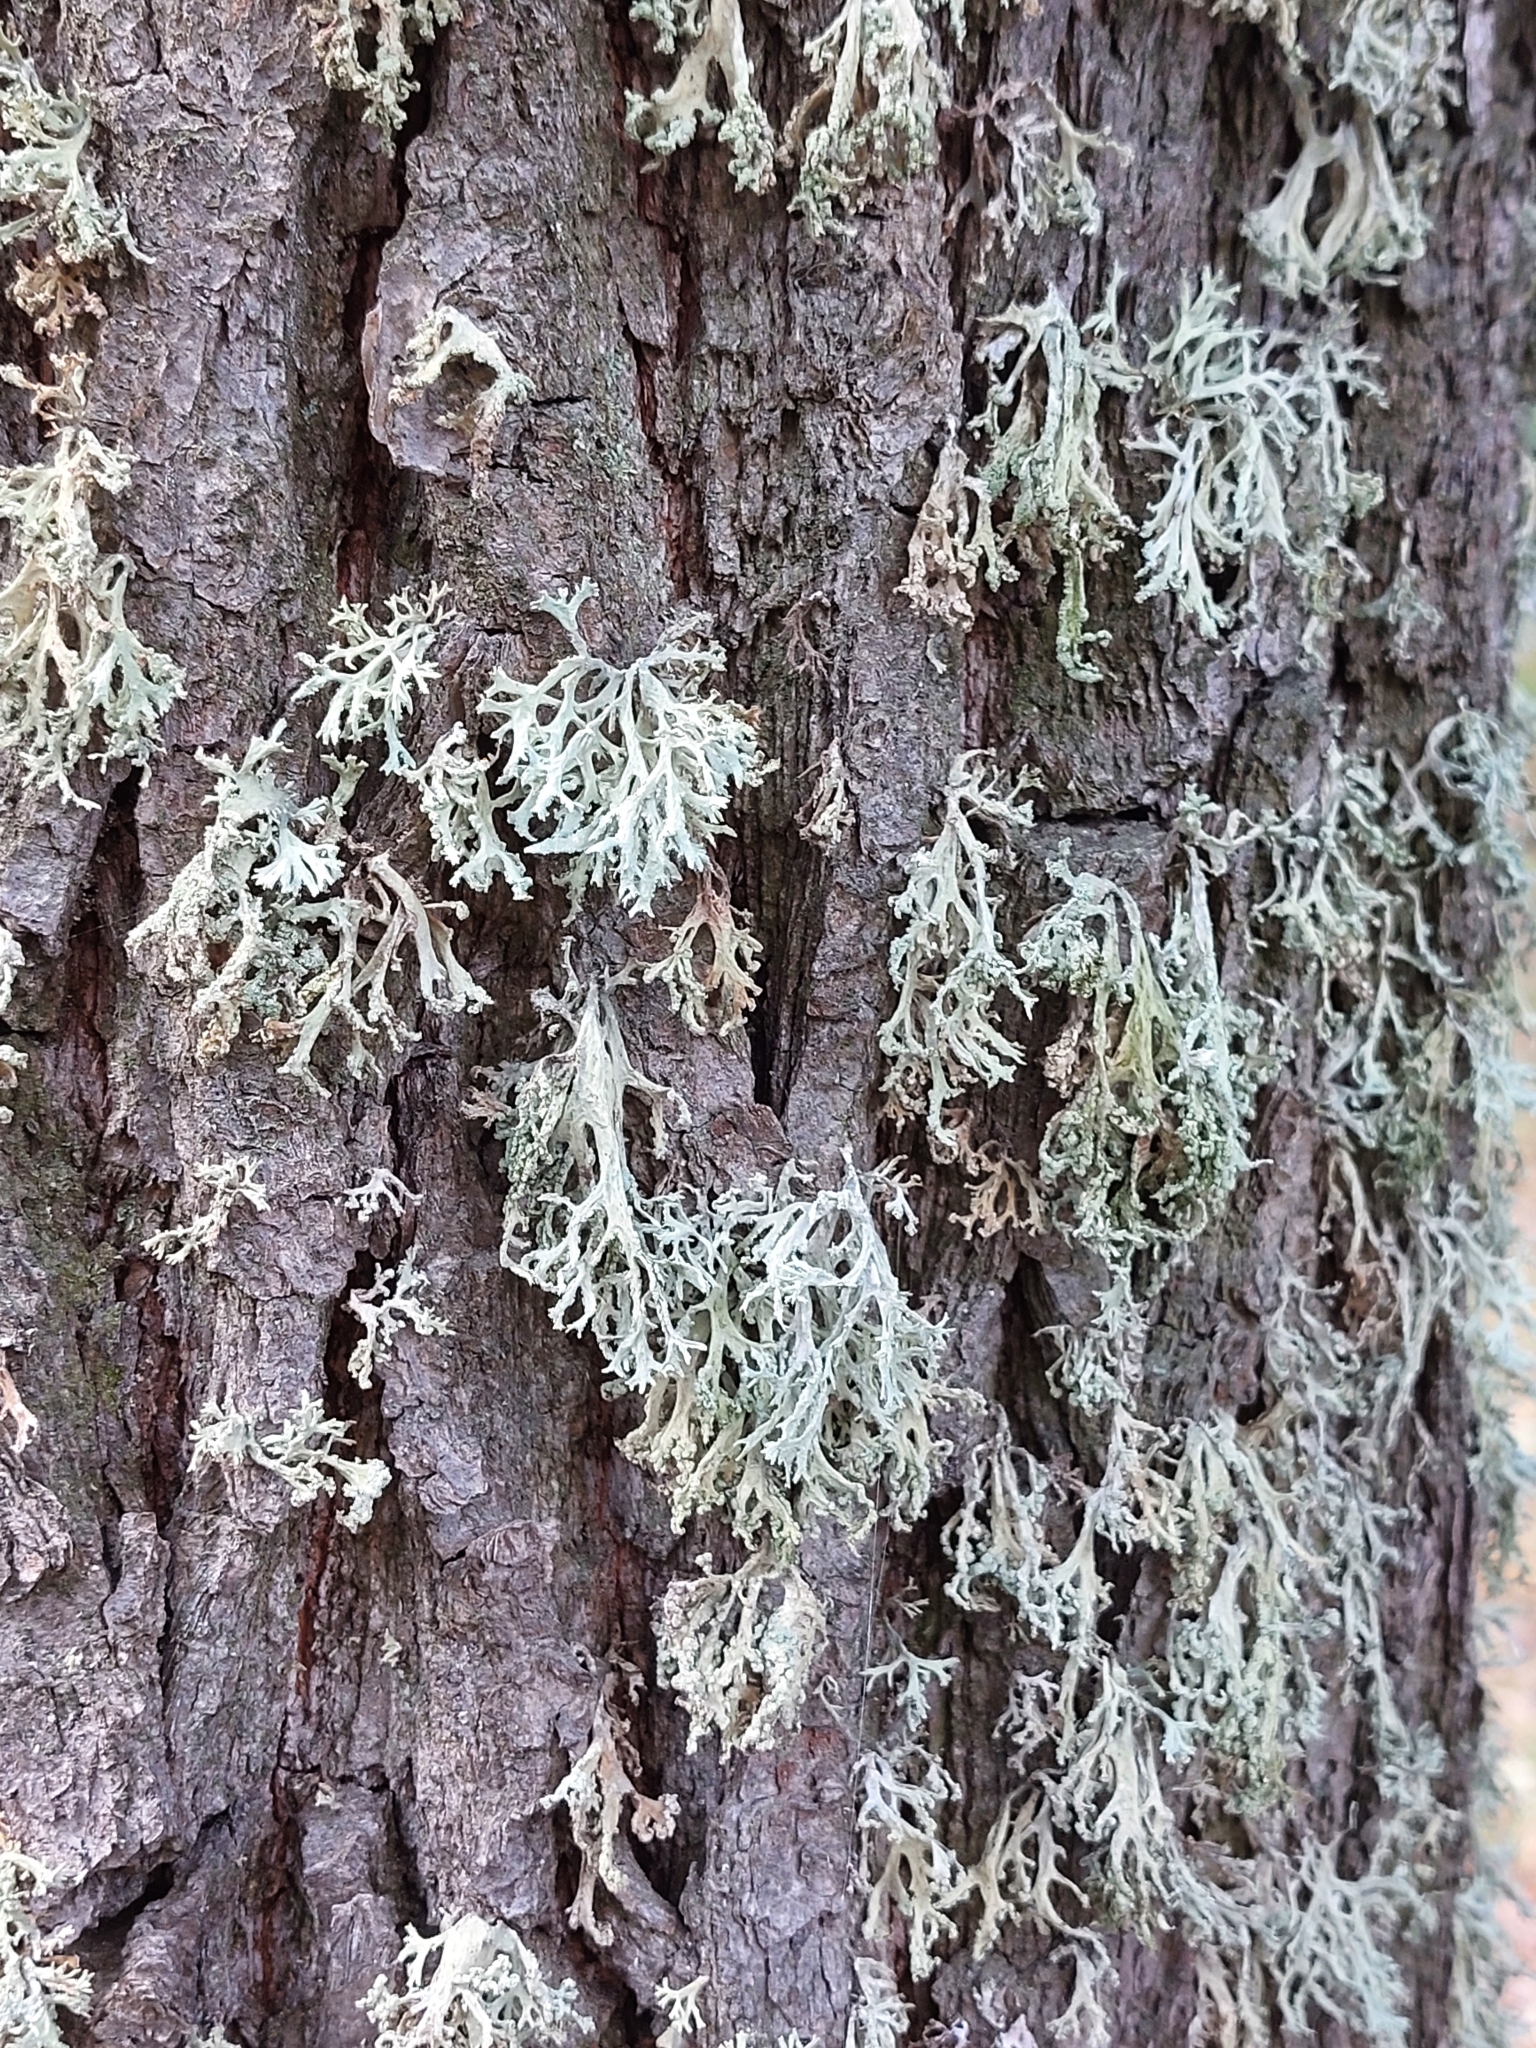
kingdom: Fungi
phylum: Ascomycota
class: Lecanoromycetes
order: Lecanorales
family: Parmeliaceae
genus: Evernia
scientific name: Evernia prunastri
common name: Oak moss
